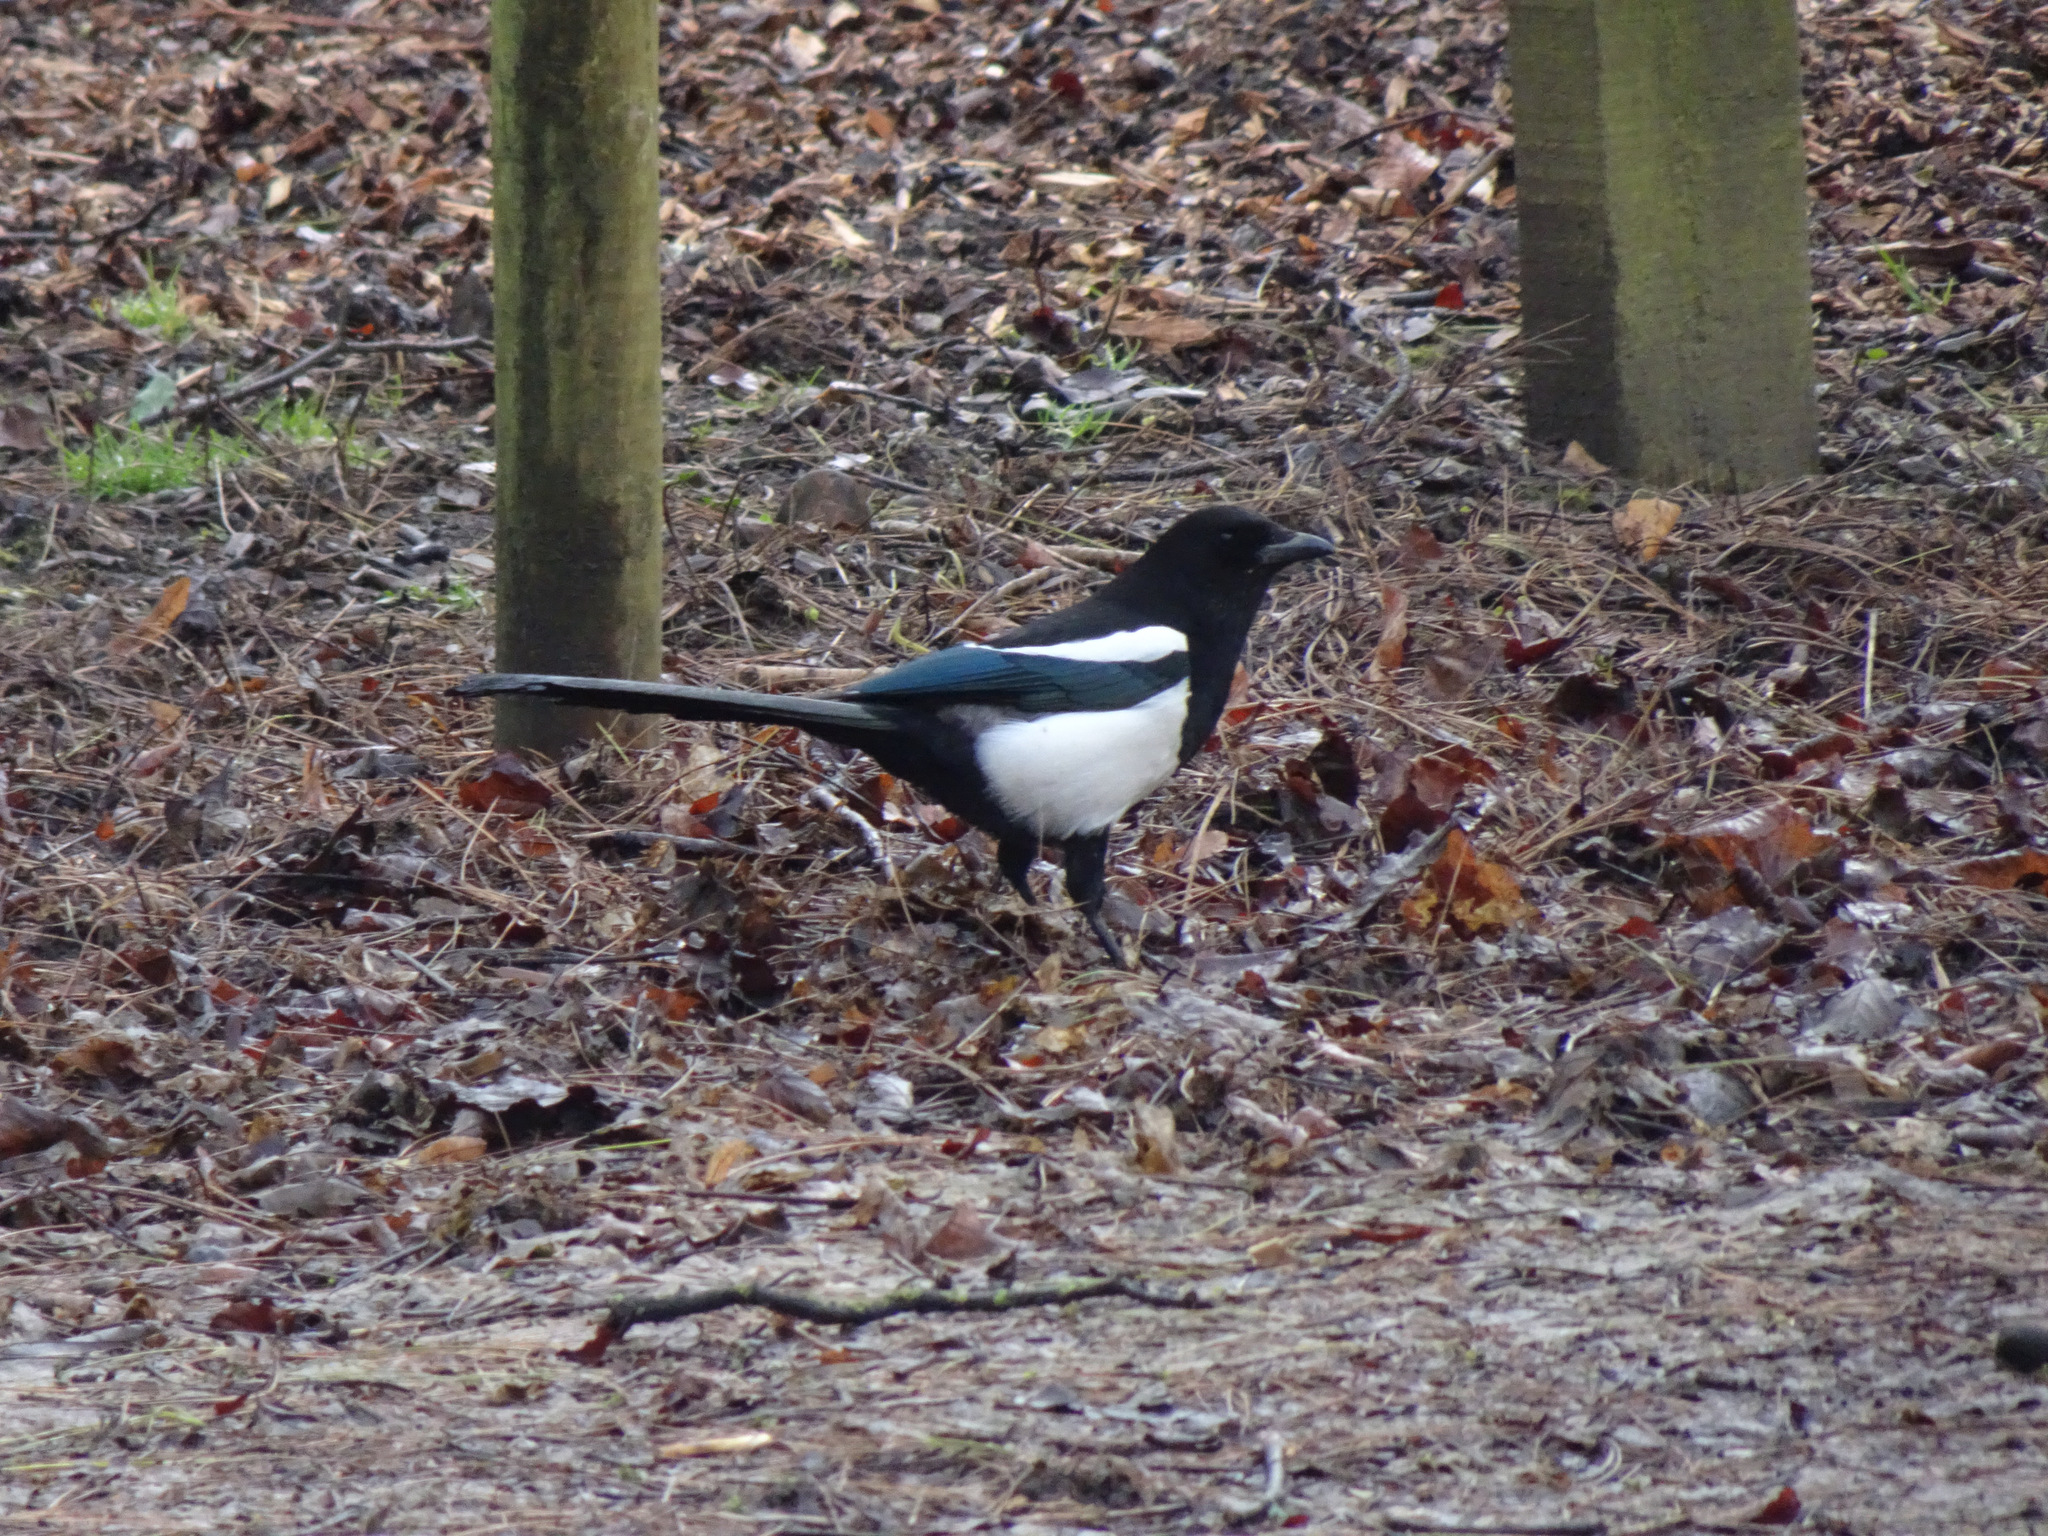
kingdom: Animalia
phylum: Chordata
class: Aves
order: Passeriformes
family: Corvidae
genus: Pica
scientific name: Pica pica
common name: Eurasian magpie
